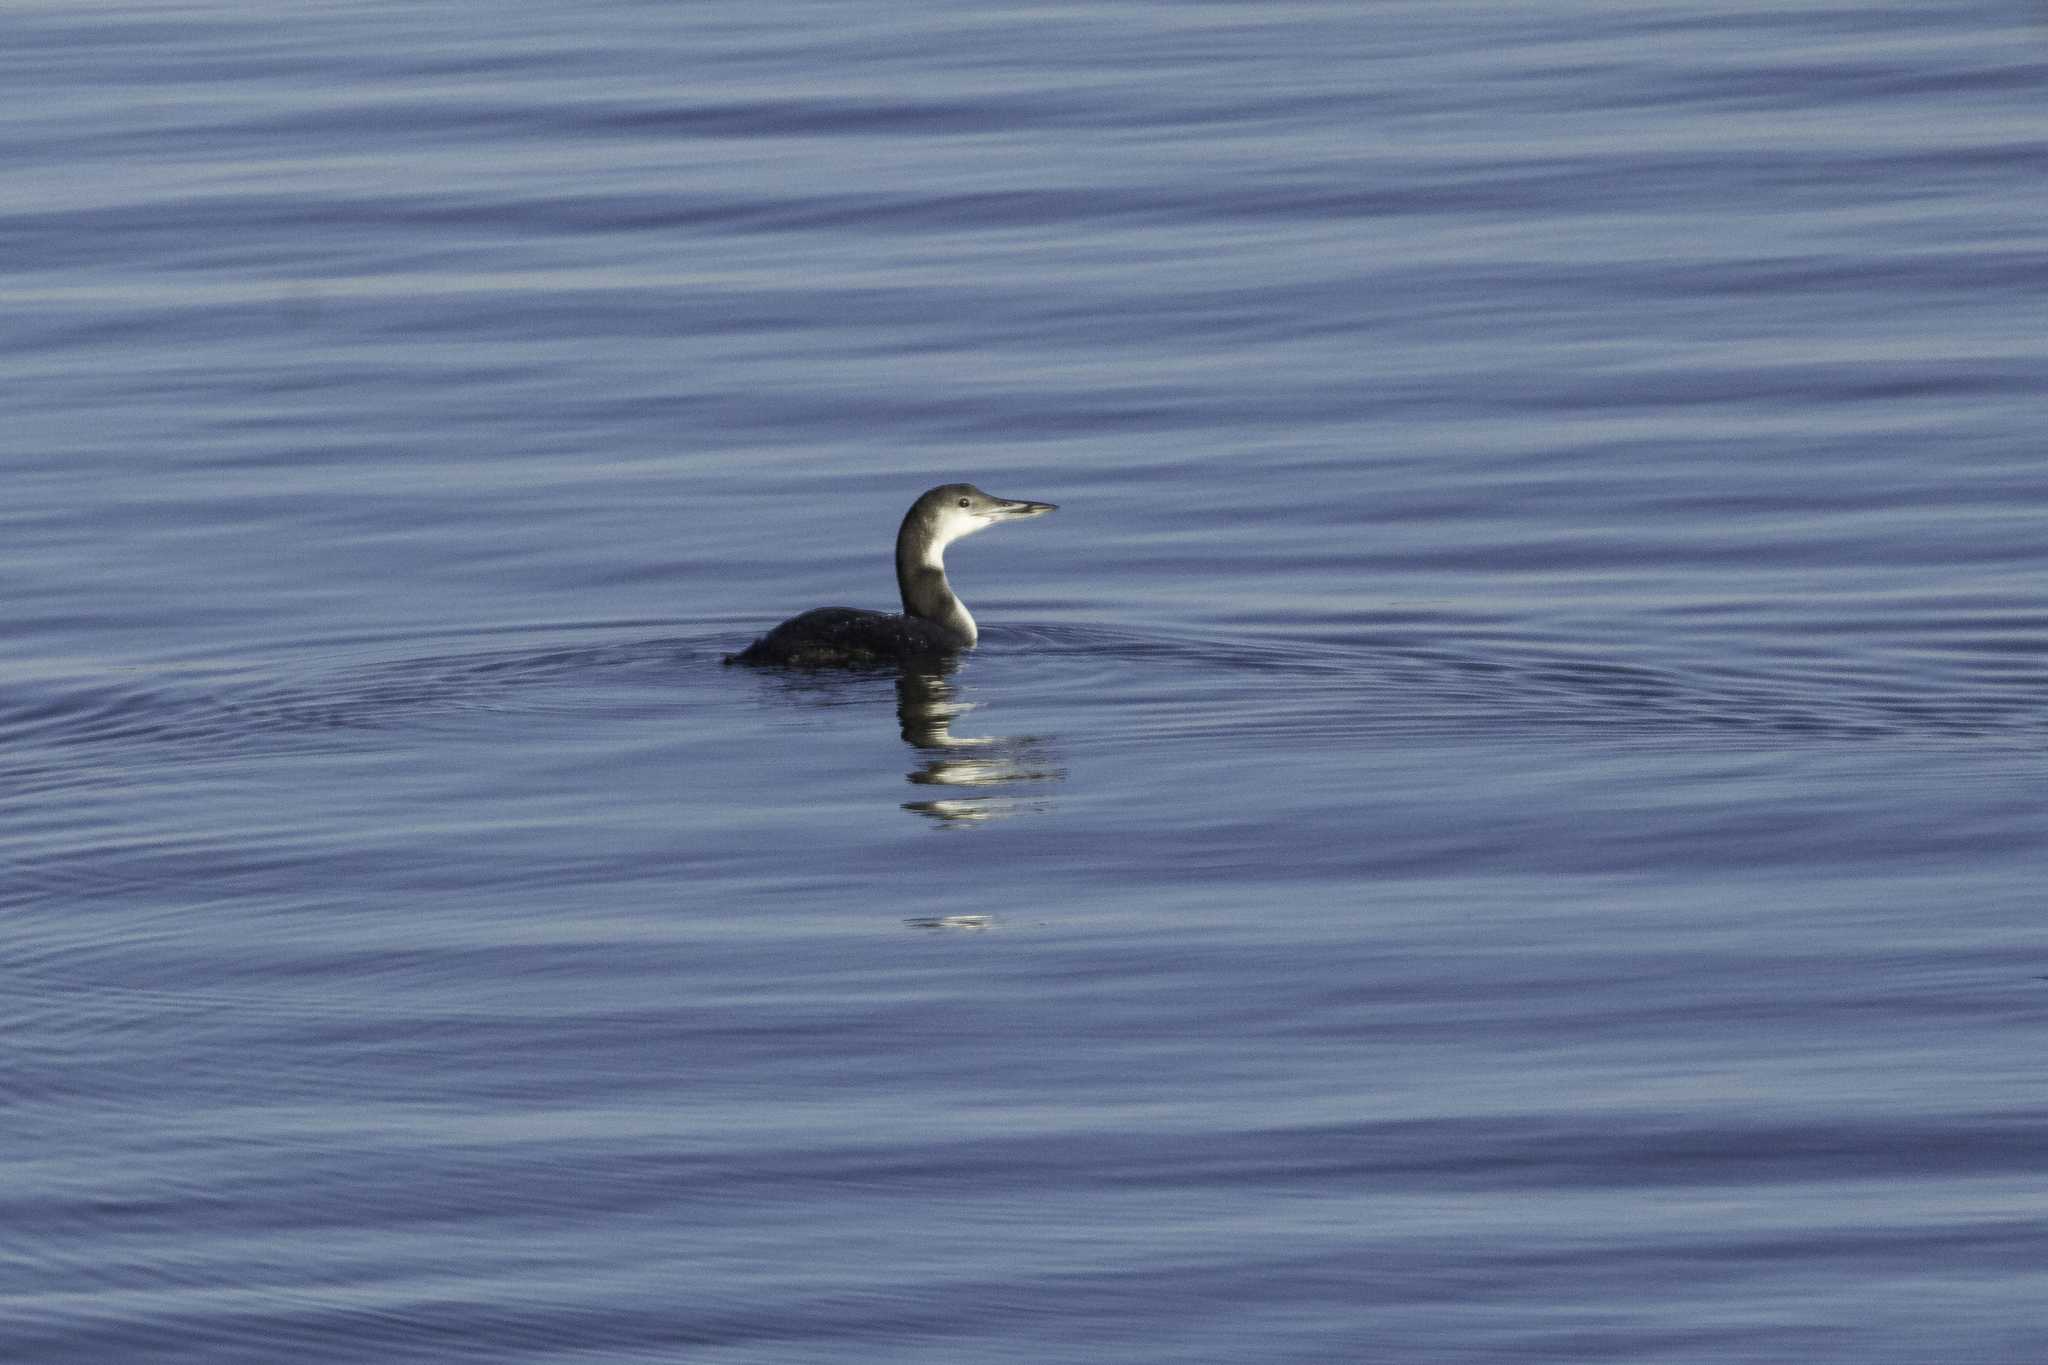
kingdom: Animalia
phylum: Chordata
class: Aves
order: Gaviiformes
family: Gaviidae
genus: Gavia
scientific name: Gavia immer
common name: Common loon
